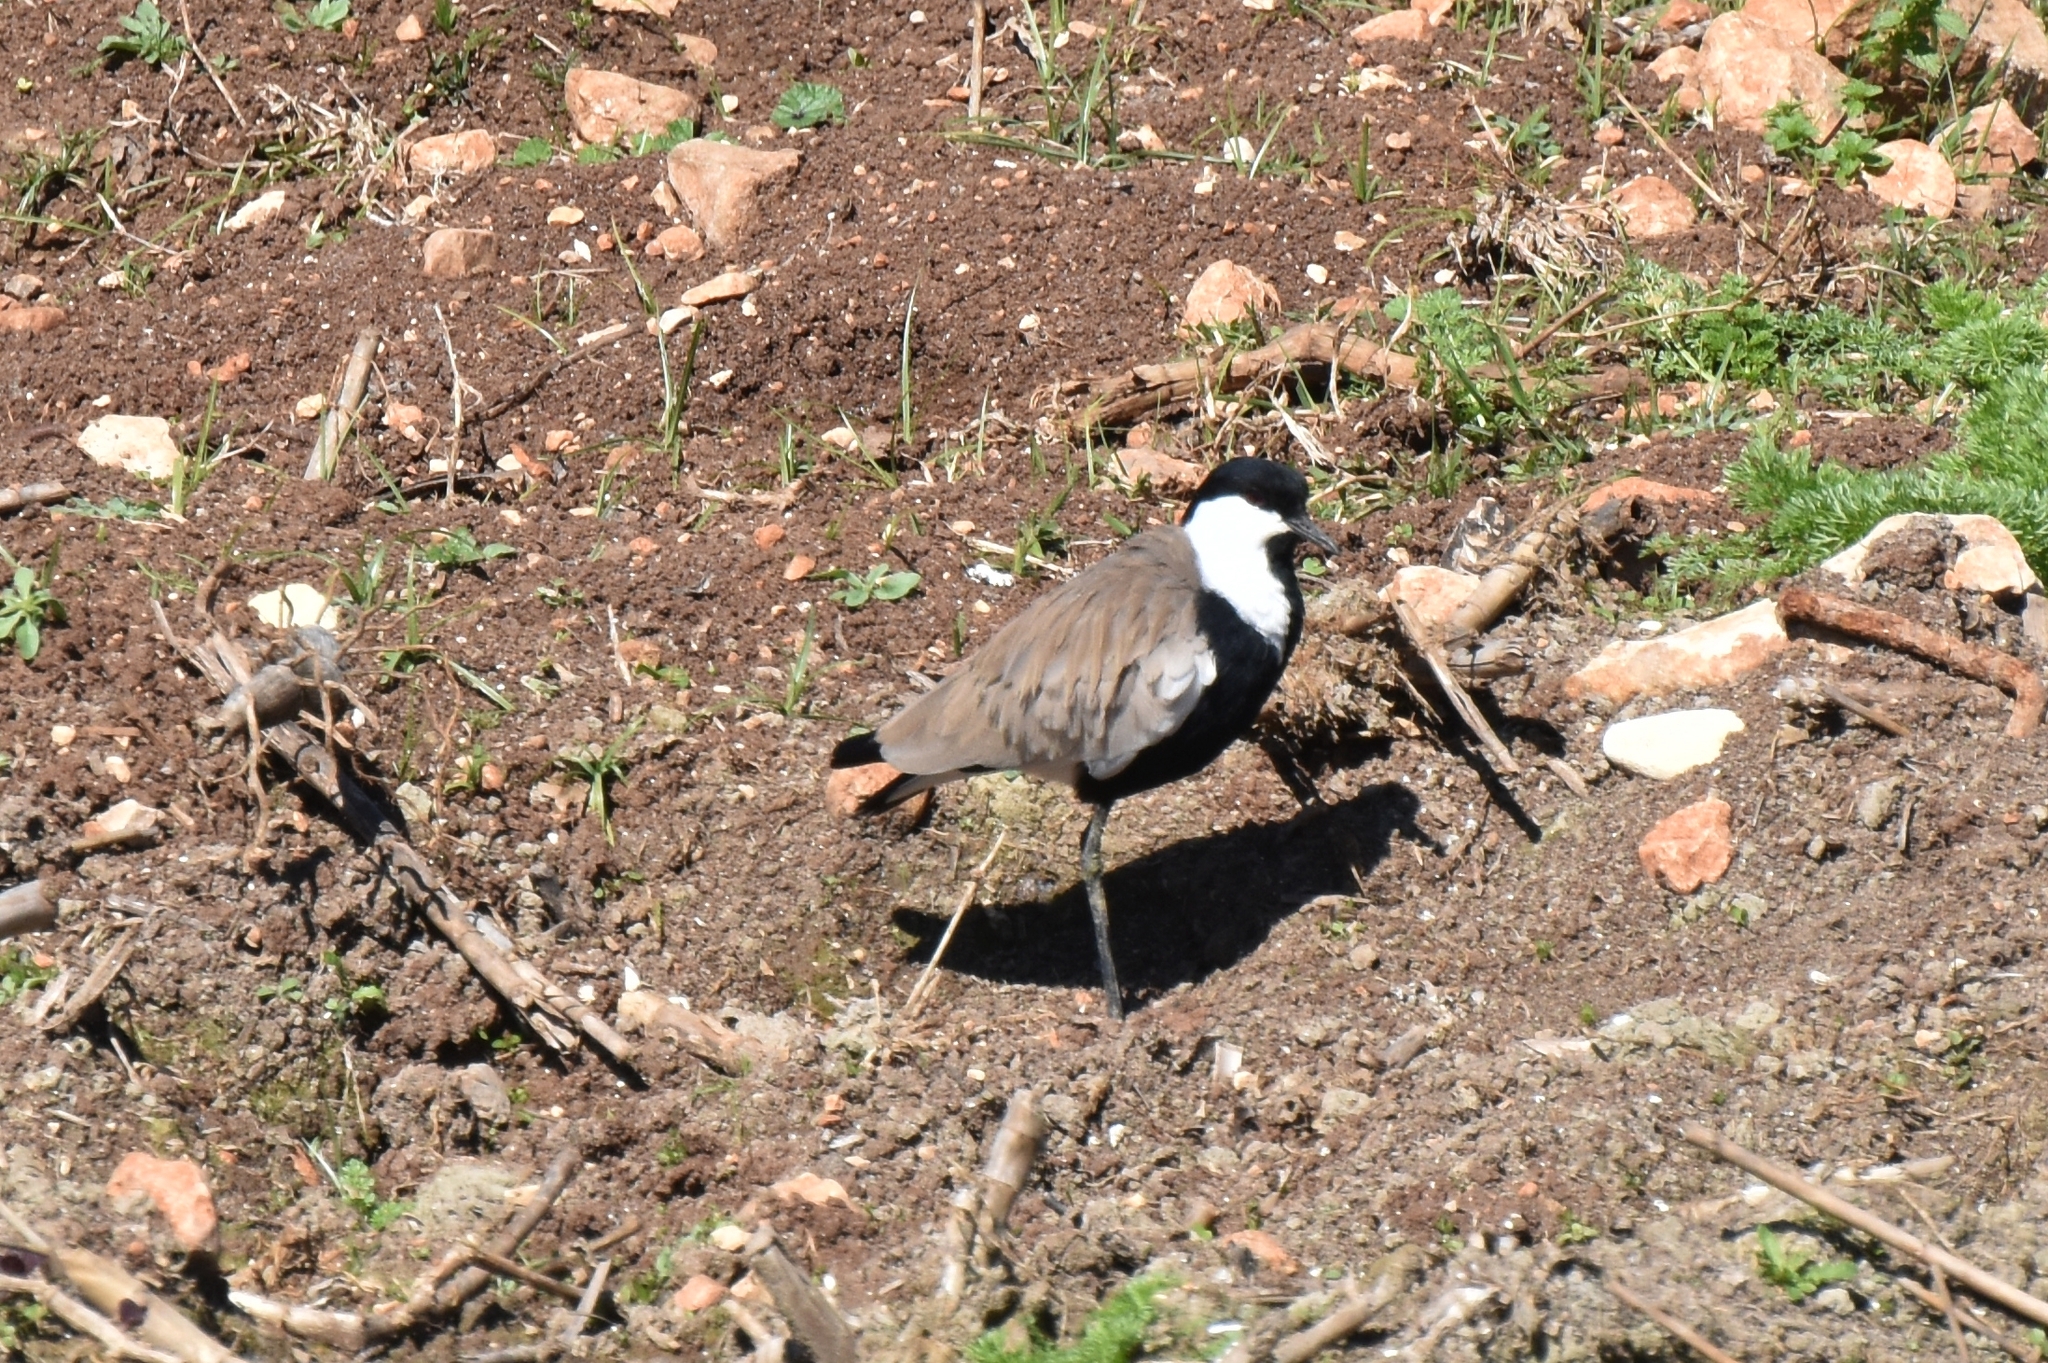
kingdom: Animalia
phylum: Chordata
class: Aves
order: Charadriiformes
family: Charadriidae
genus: Vanellus
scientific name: Vanellus spinosus
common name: Spur-winged lapwing
